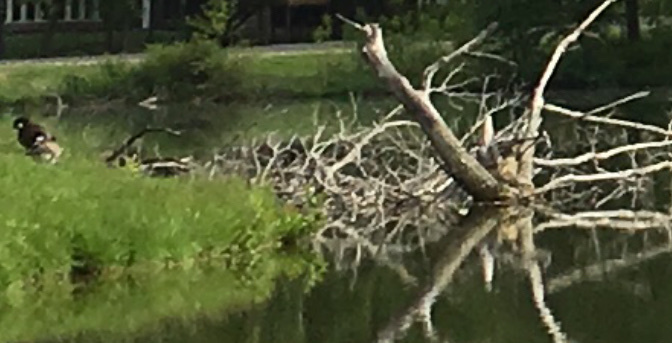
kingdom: Animalia
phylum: Chordata
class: Mammalia
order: Rodentia
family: Castoridae
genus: Castor
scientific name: Castor canadensis
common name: American beaver
